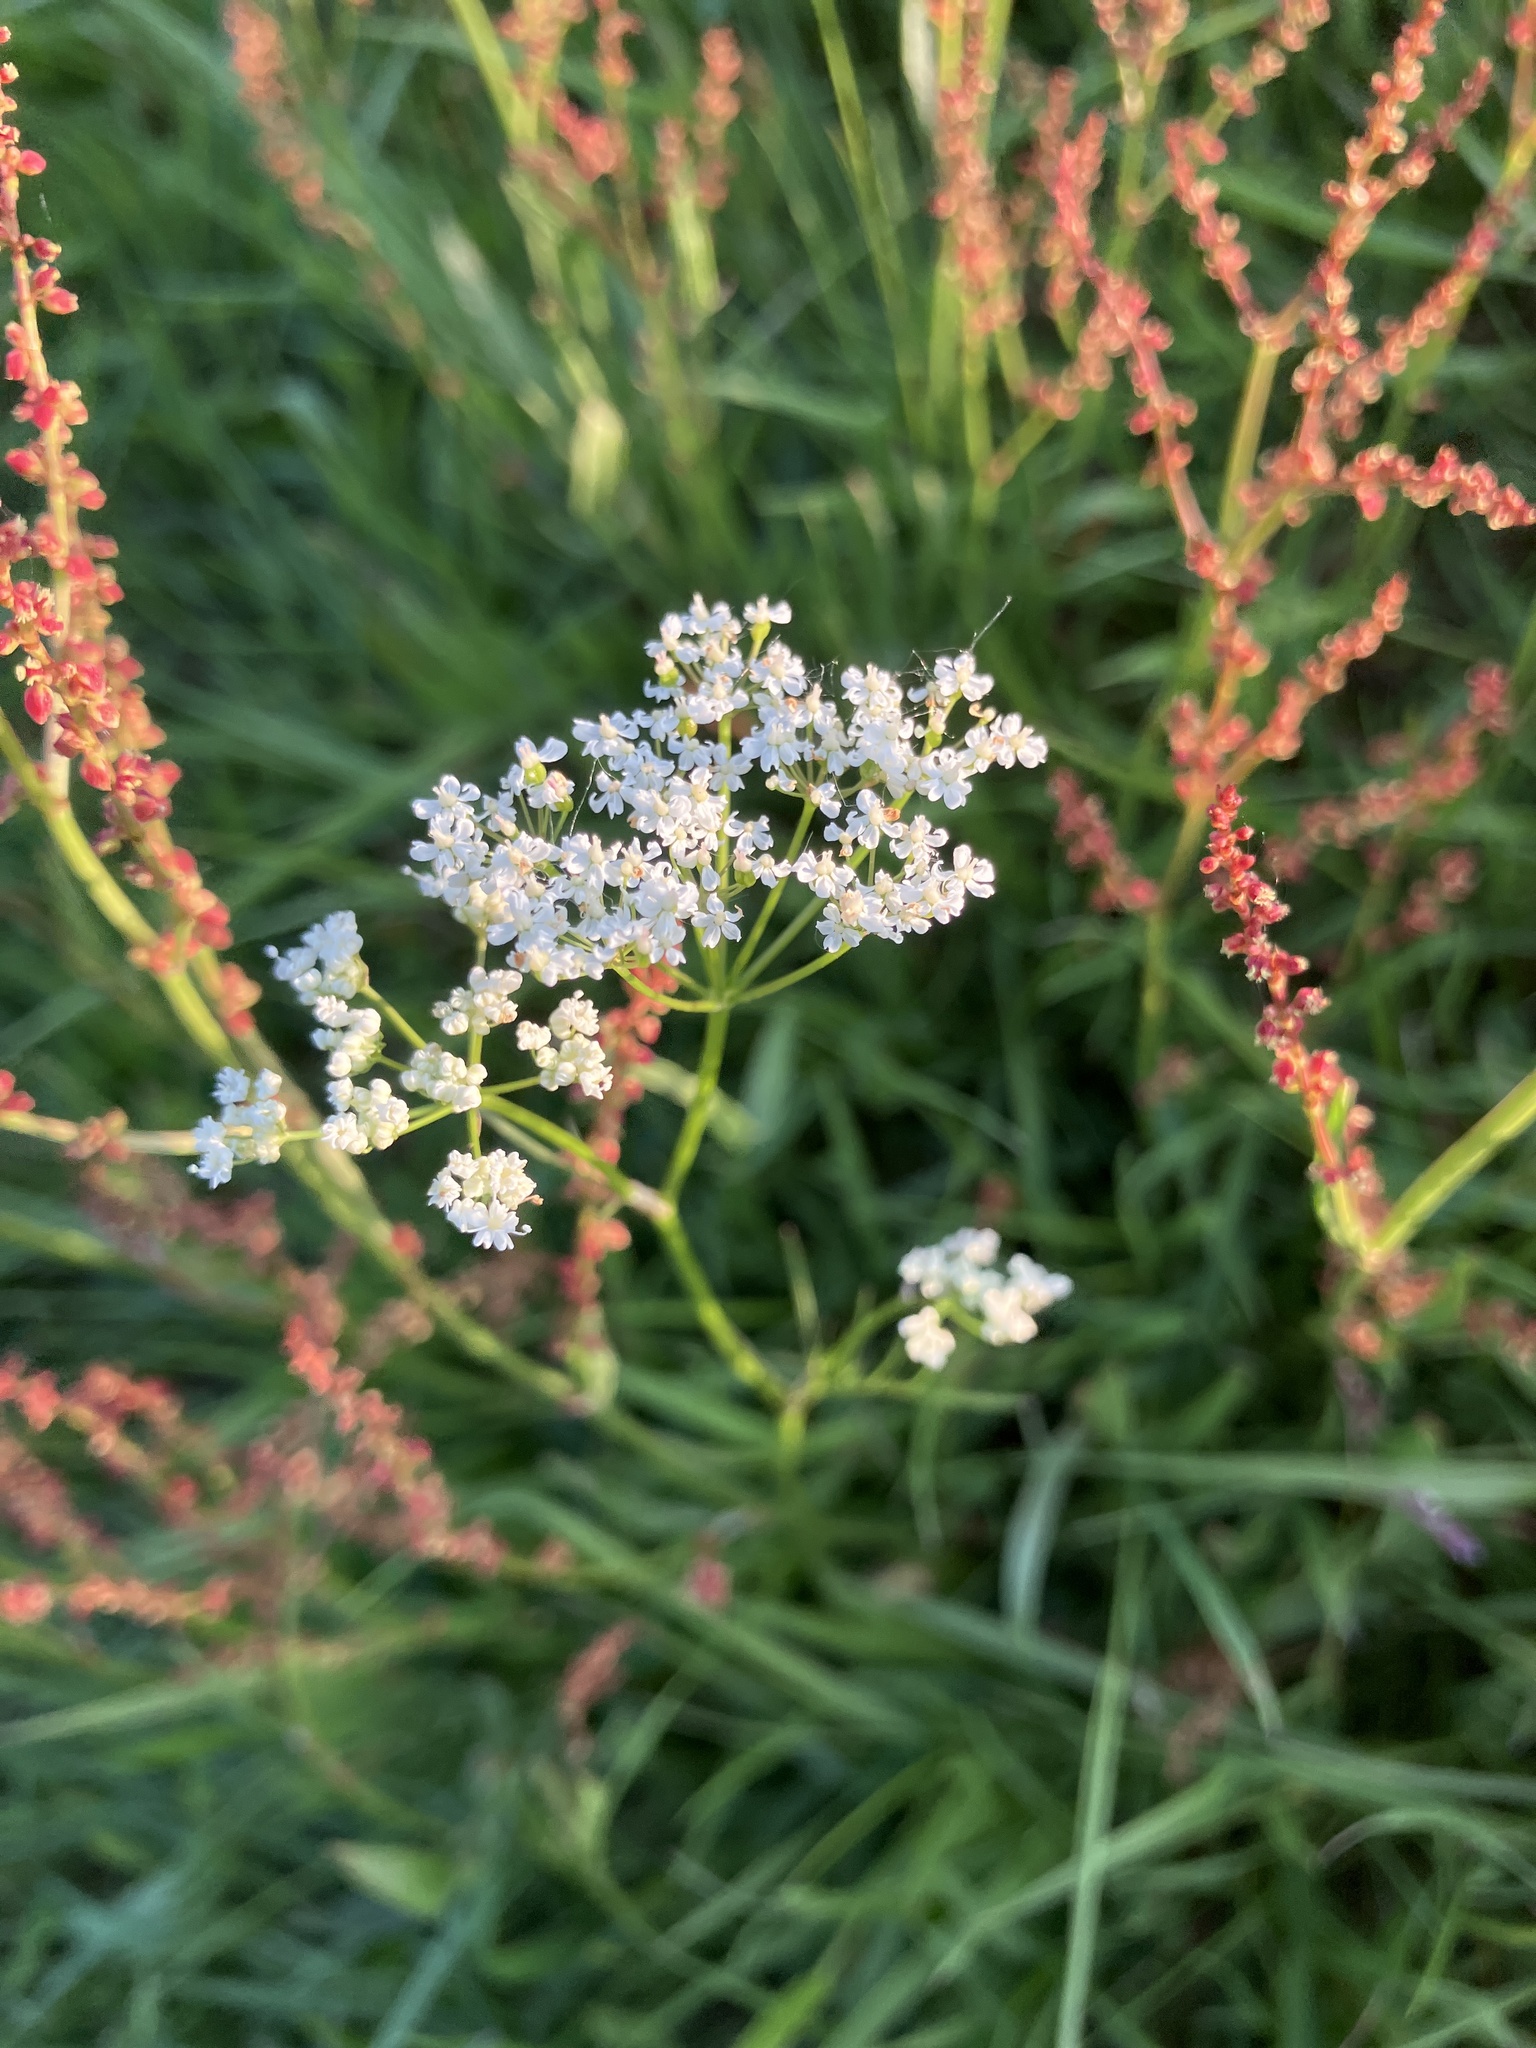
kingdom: Plantae
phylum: Tracheophyta
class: Magnoliopsida
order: Apiales
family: Apiaceae
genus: Conopodium
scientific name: Conopodium majus
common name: Pignut
